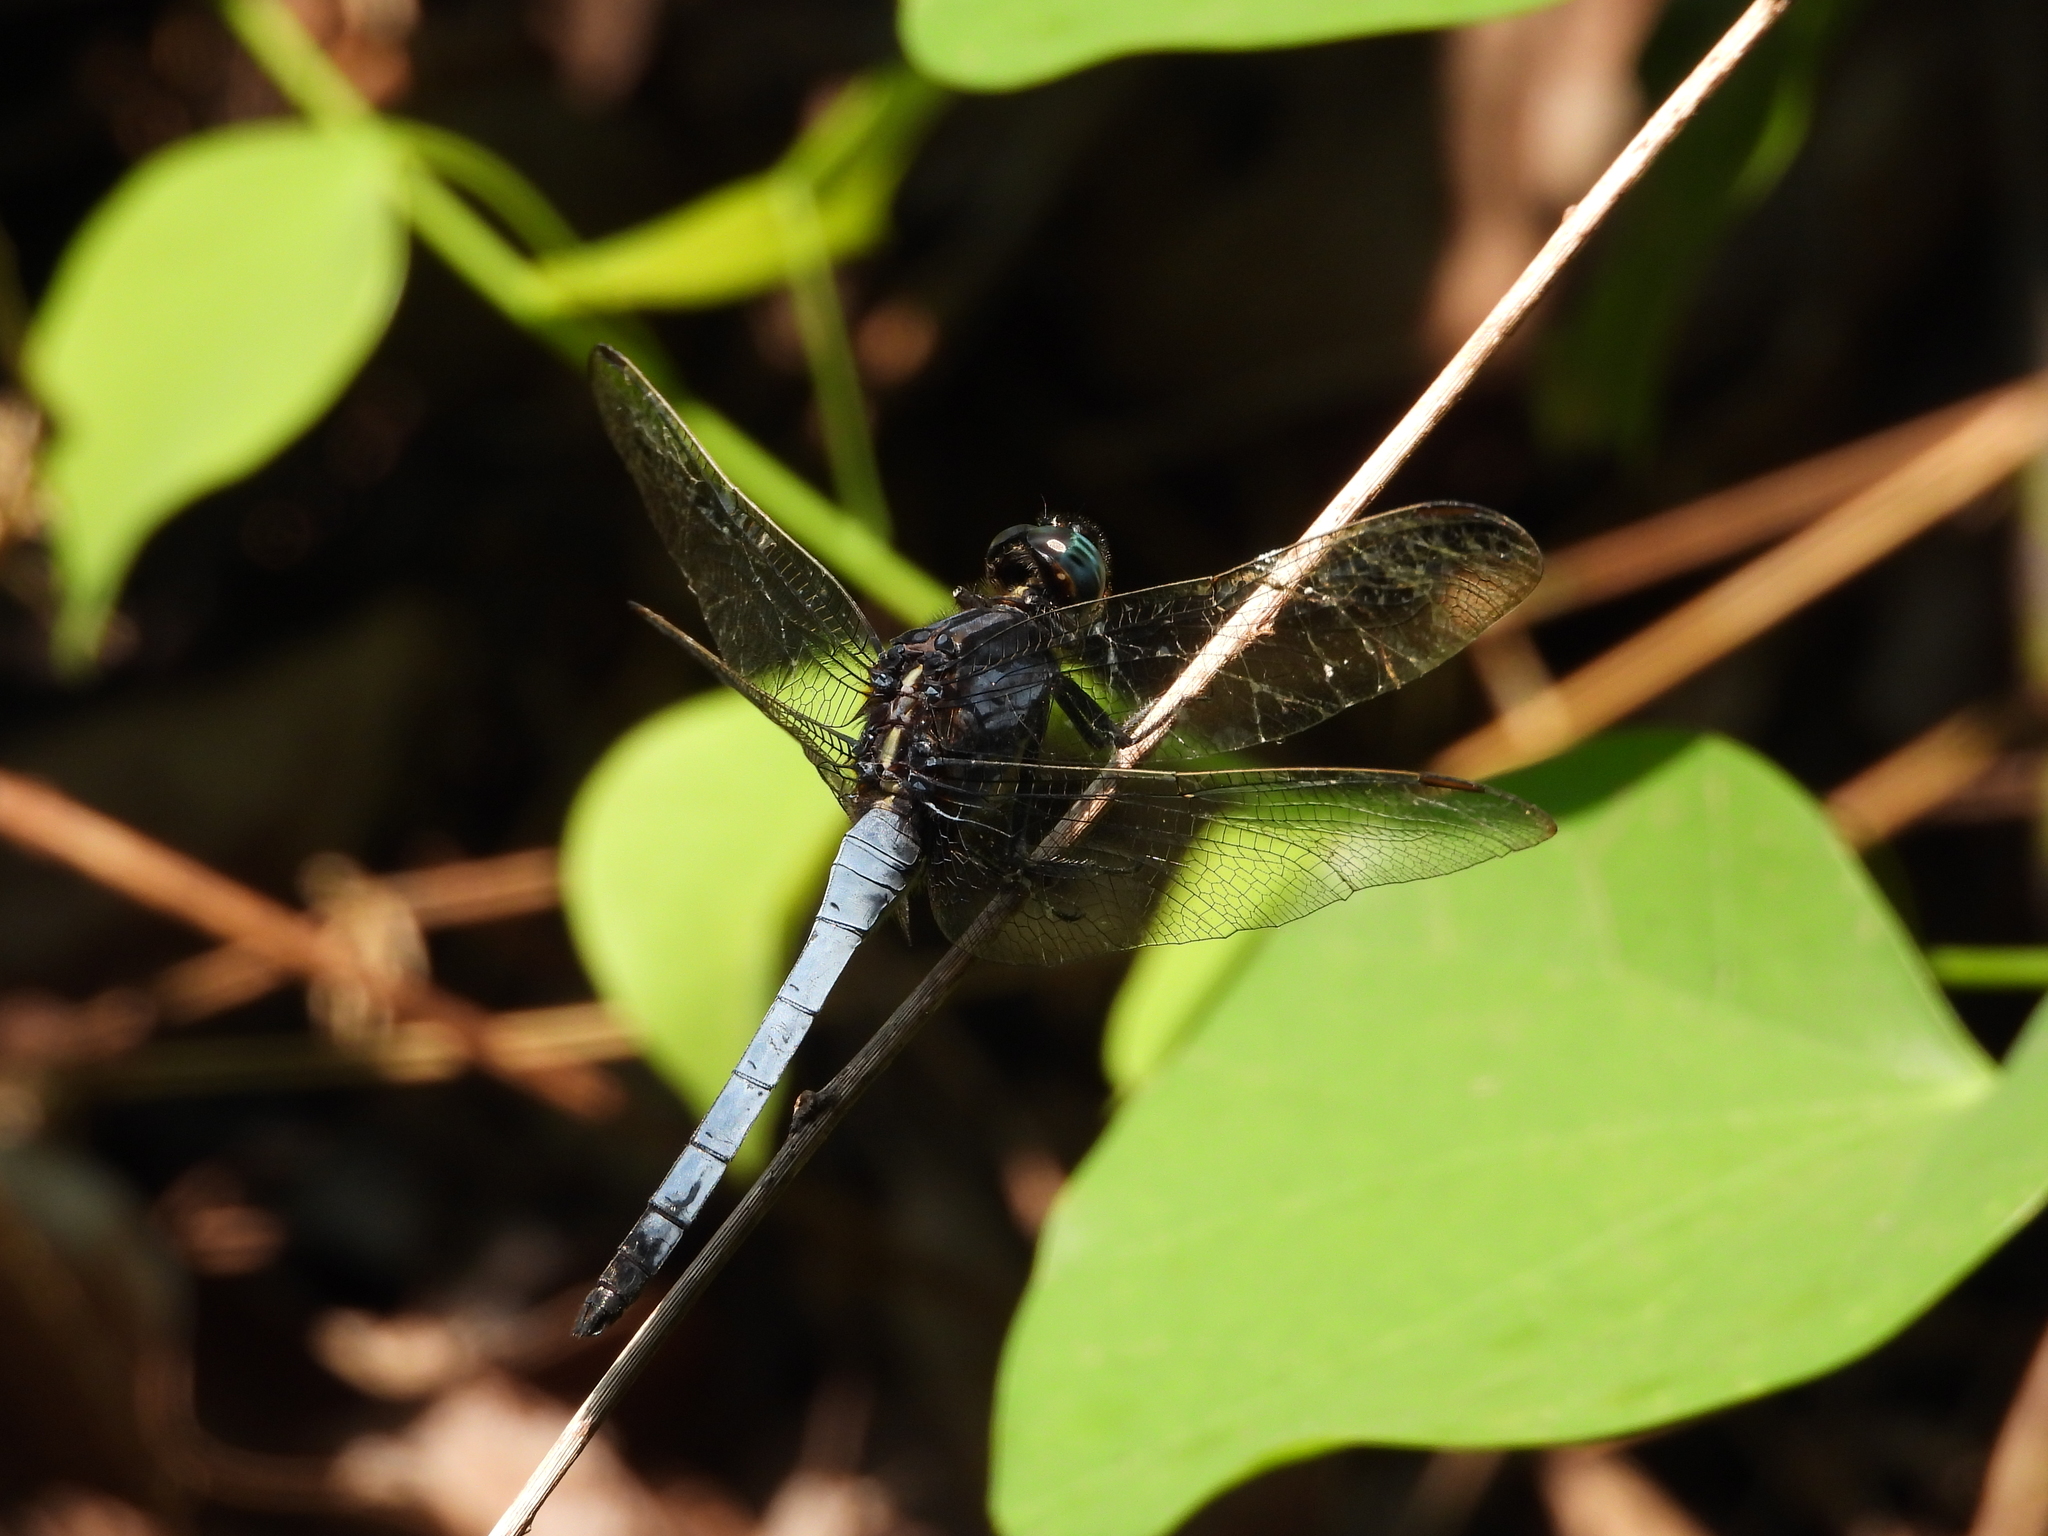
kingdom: Animalia
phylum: Arthropoda
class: Insecta
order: Odonata
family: Libellulidae
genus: Orthetrum
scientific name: Orthetrum glaucum
